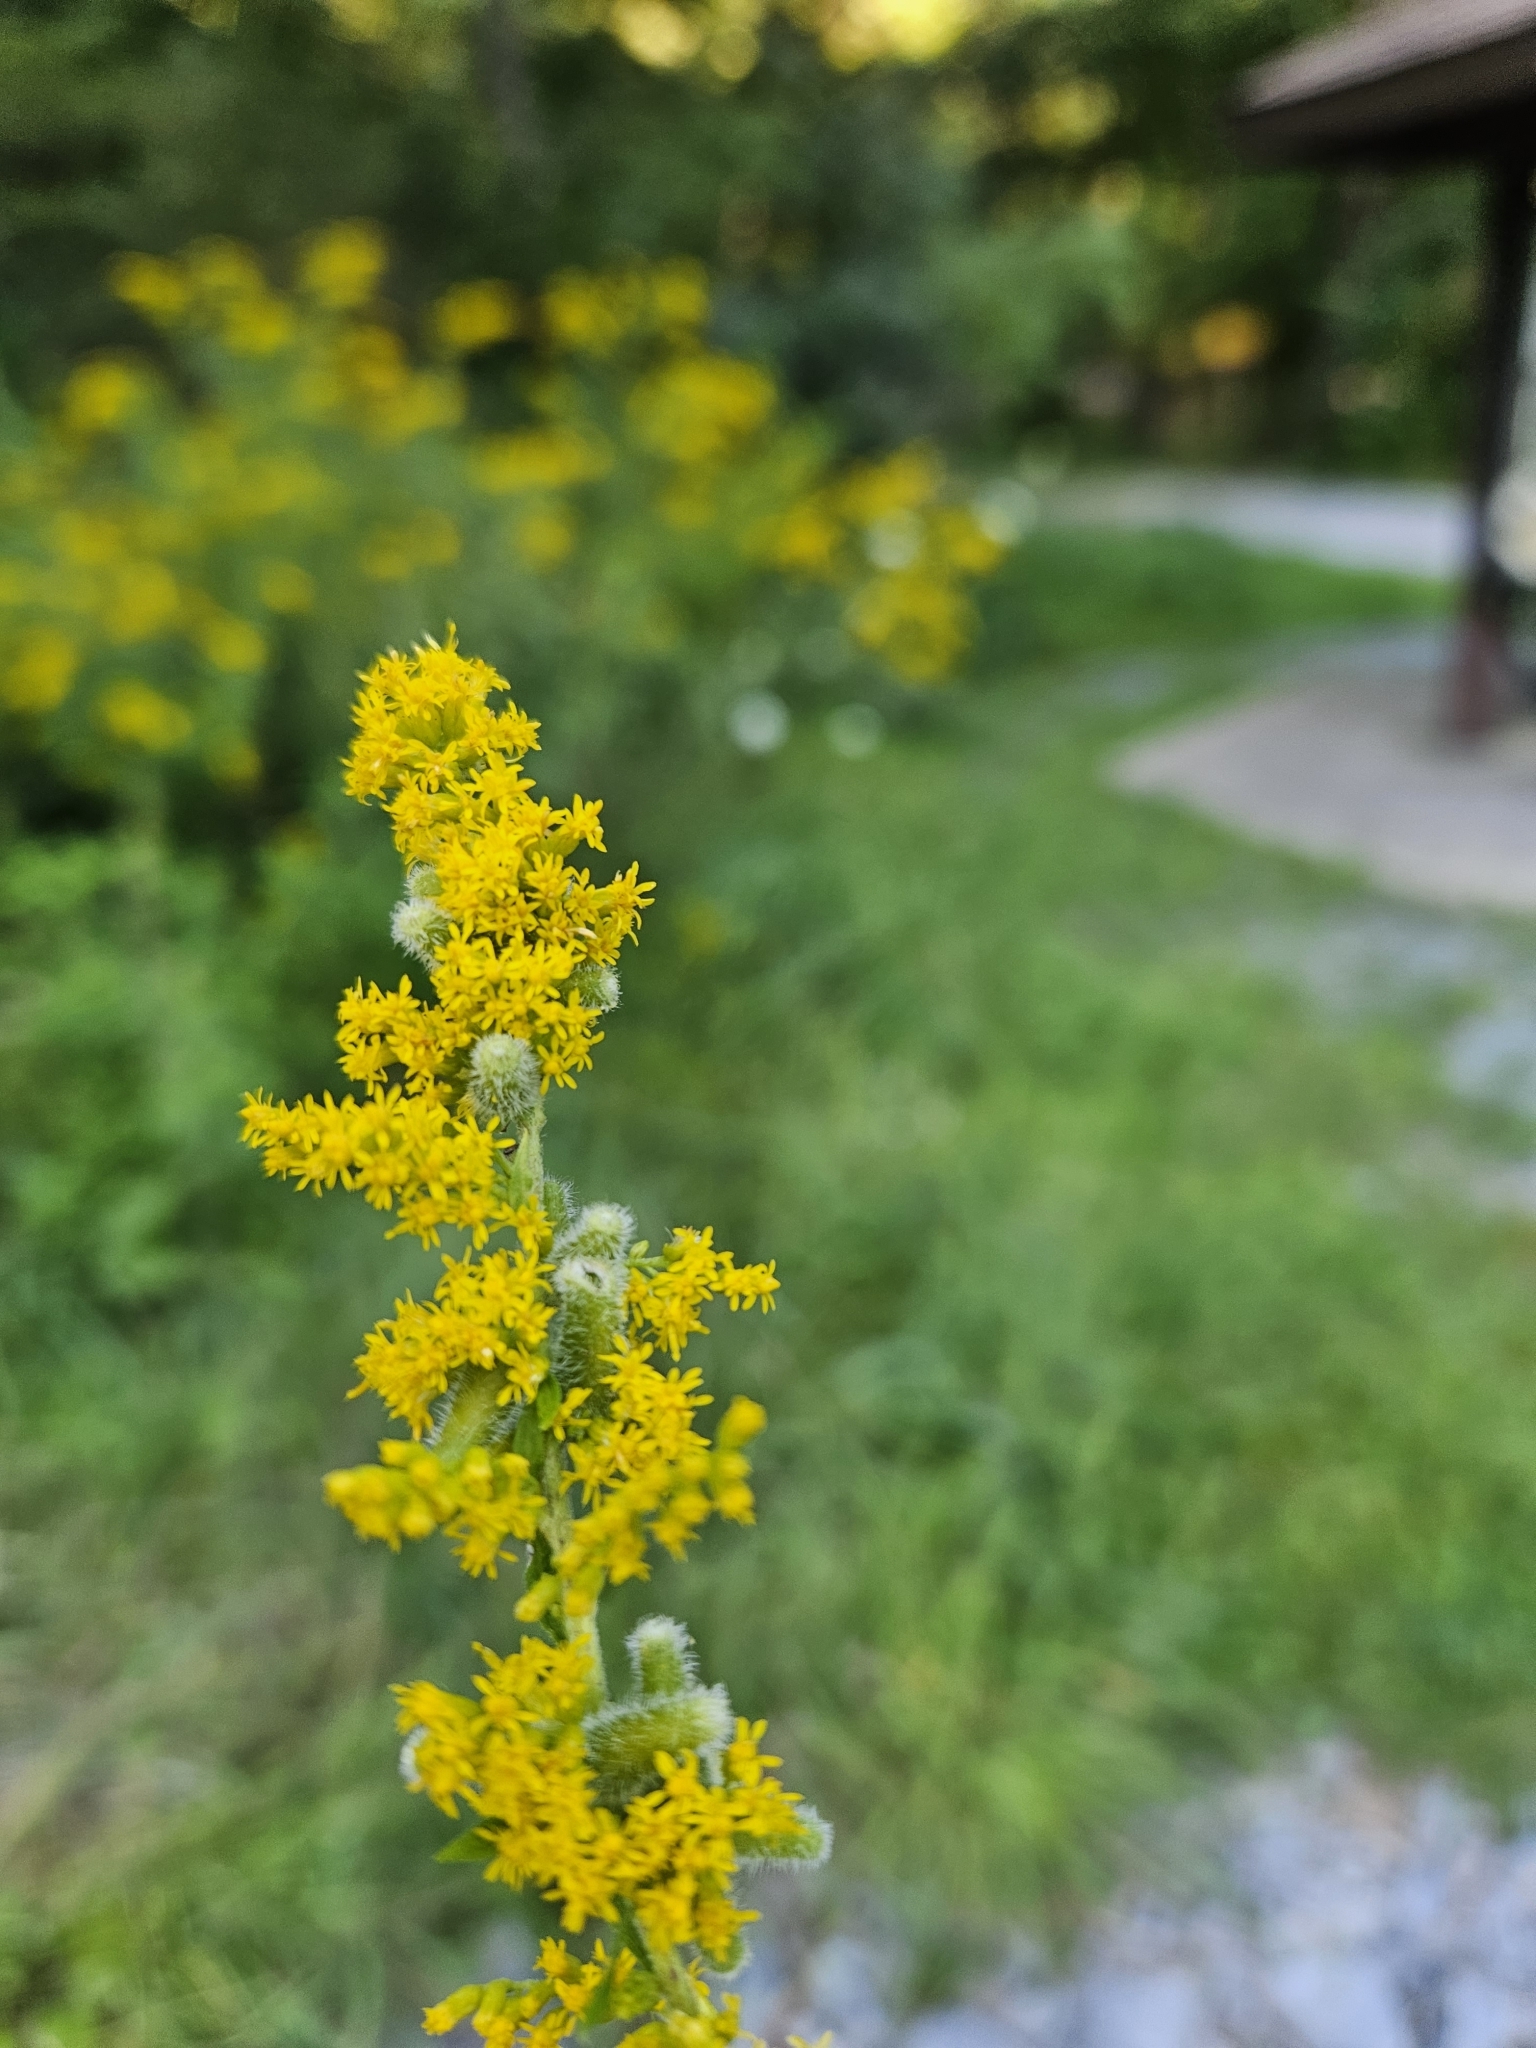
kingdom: Animalia
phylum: Arthropoda
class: Insecta
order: Diptera
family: Cecidomyiidae
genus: Rhopalomyia
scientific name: Rhopalomyia anthophila
